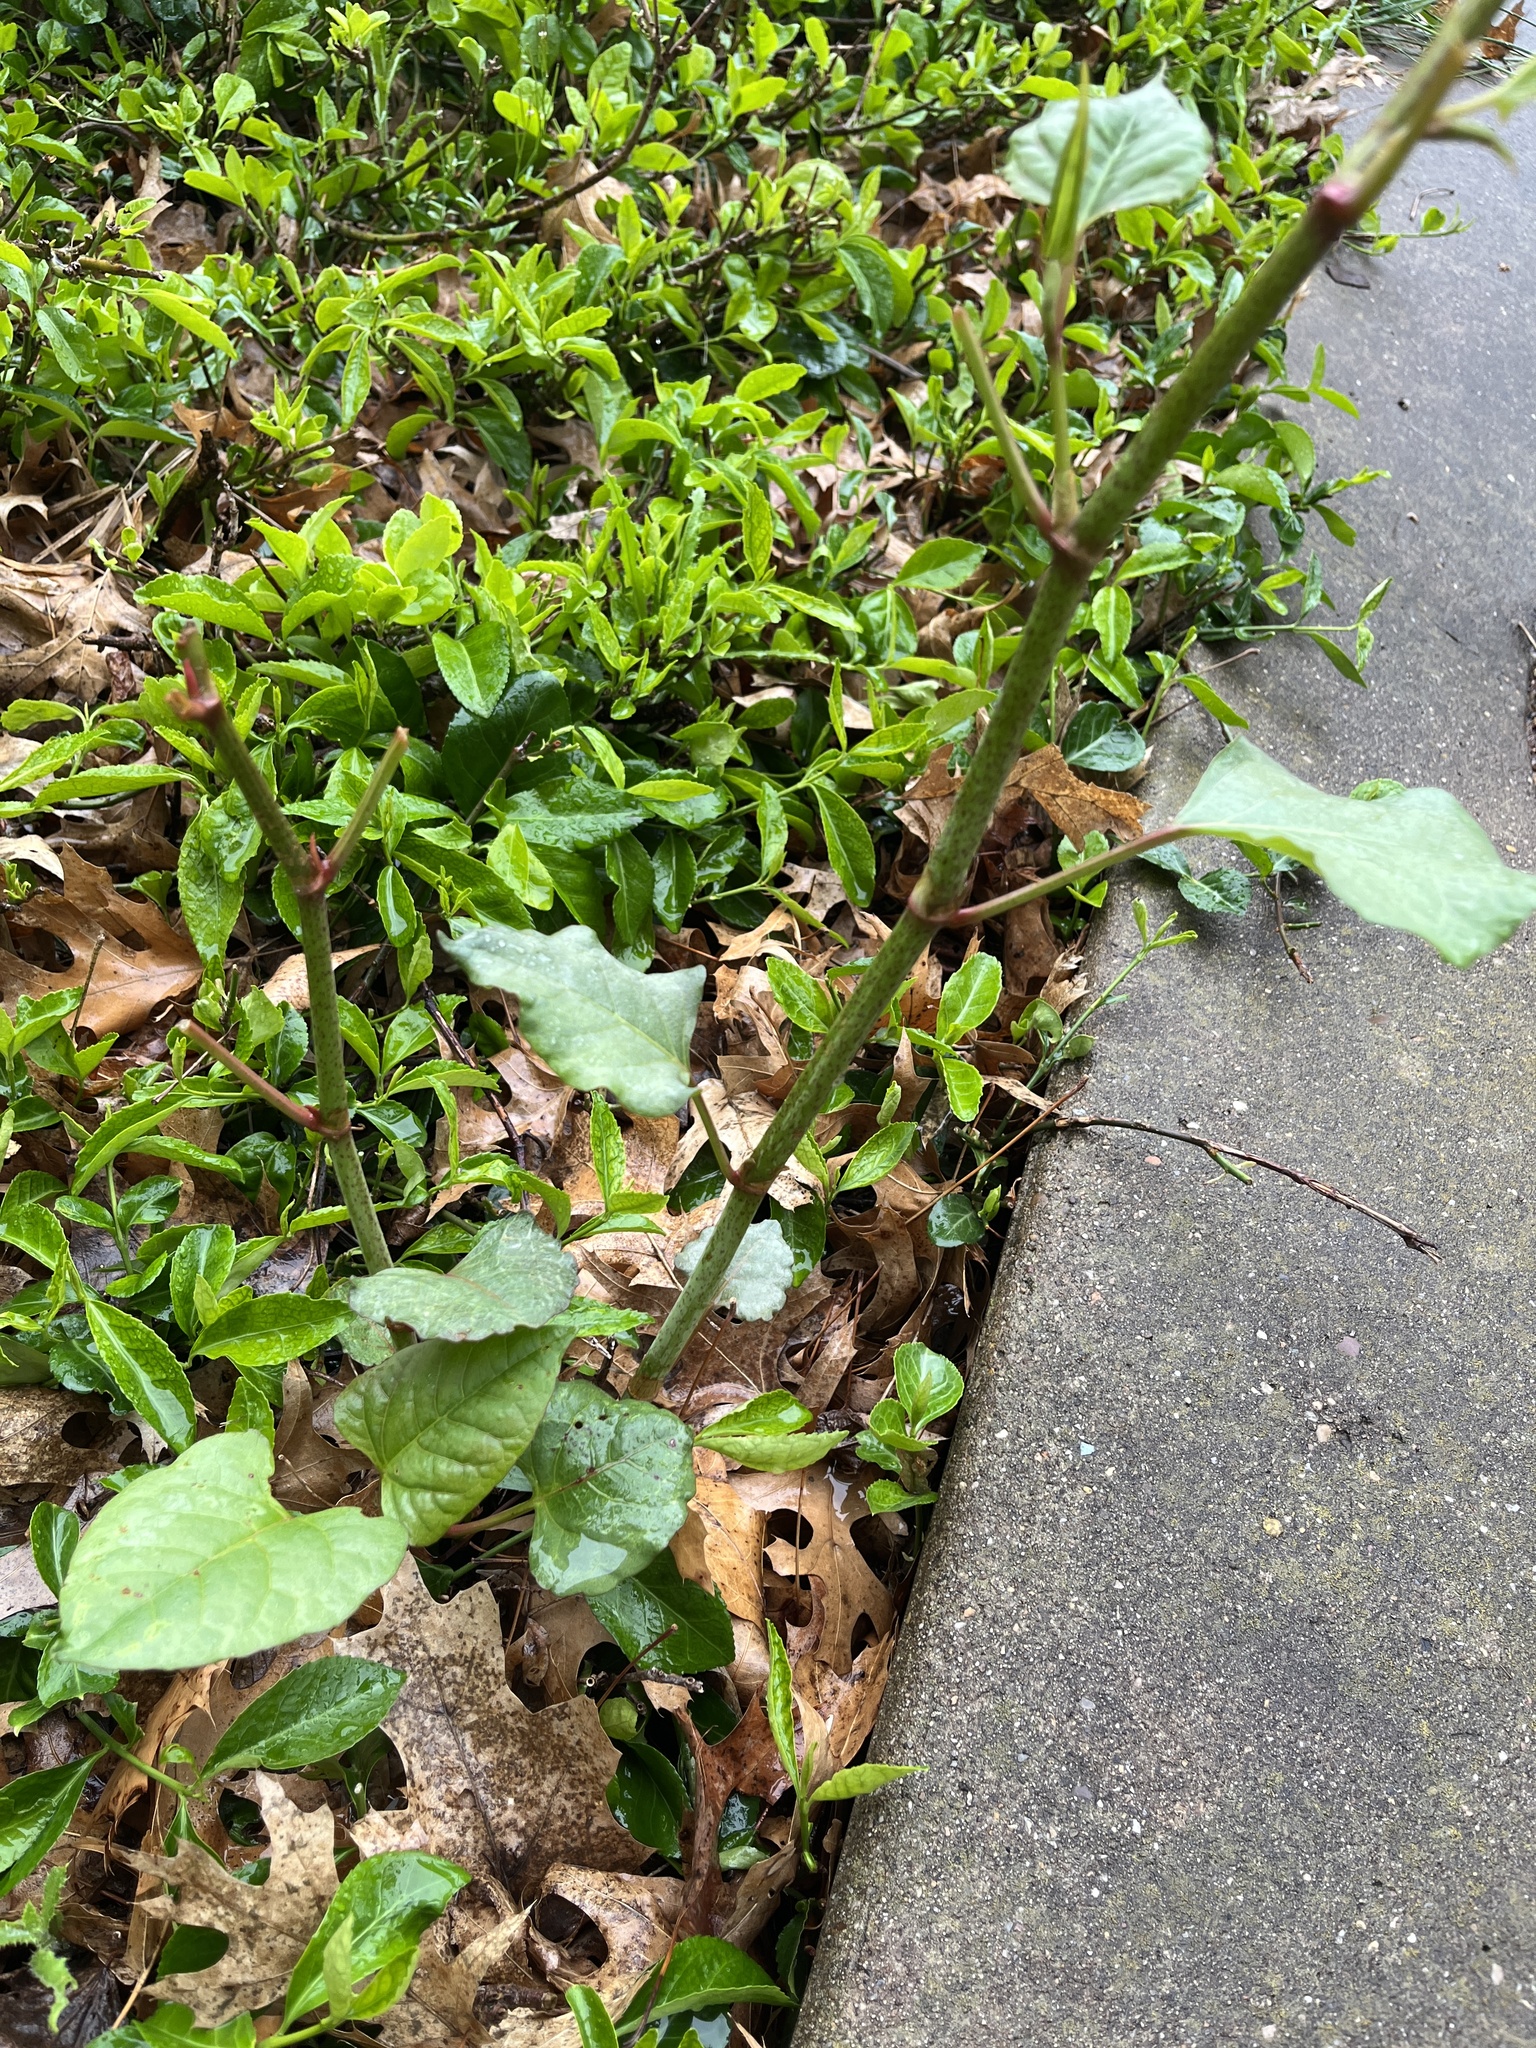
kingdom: Plantae
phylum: Tracheophyta
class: Magnoliopsida
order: Caryophyllales
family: Polygonaceae
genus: Reynoutria
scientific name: Reynoutria japonica
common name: Japanese knotweed
